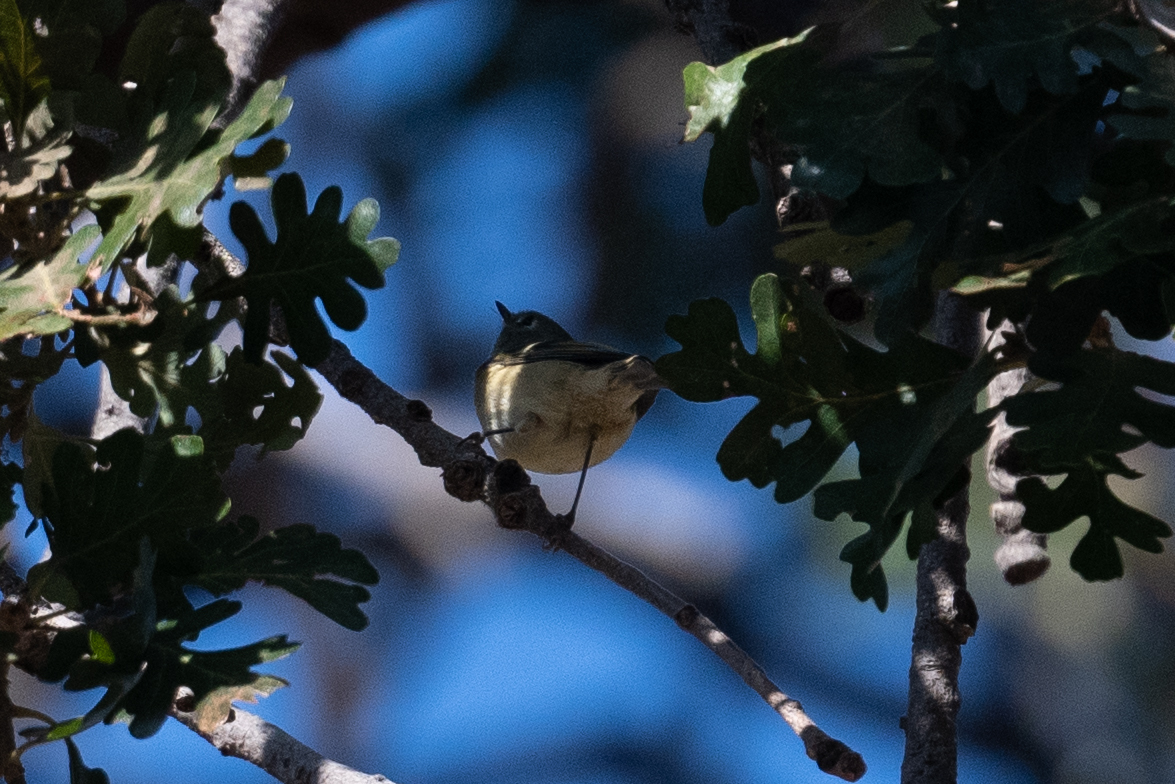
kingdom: Animalia
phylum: Chordata
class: Aves
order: Passeriformes
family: Regulidae
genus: Regulus
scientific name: Regulus calendula
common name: Ruby-crowned kinglet
